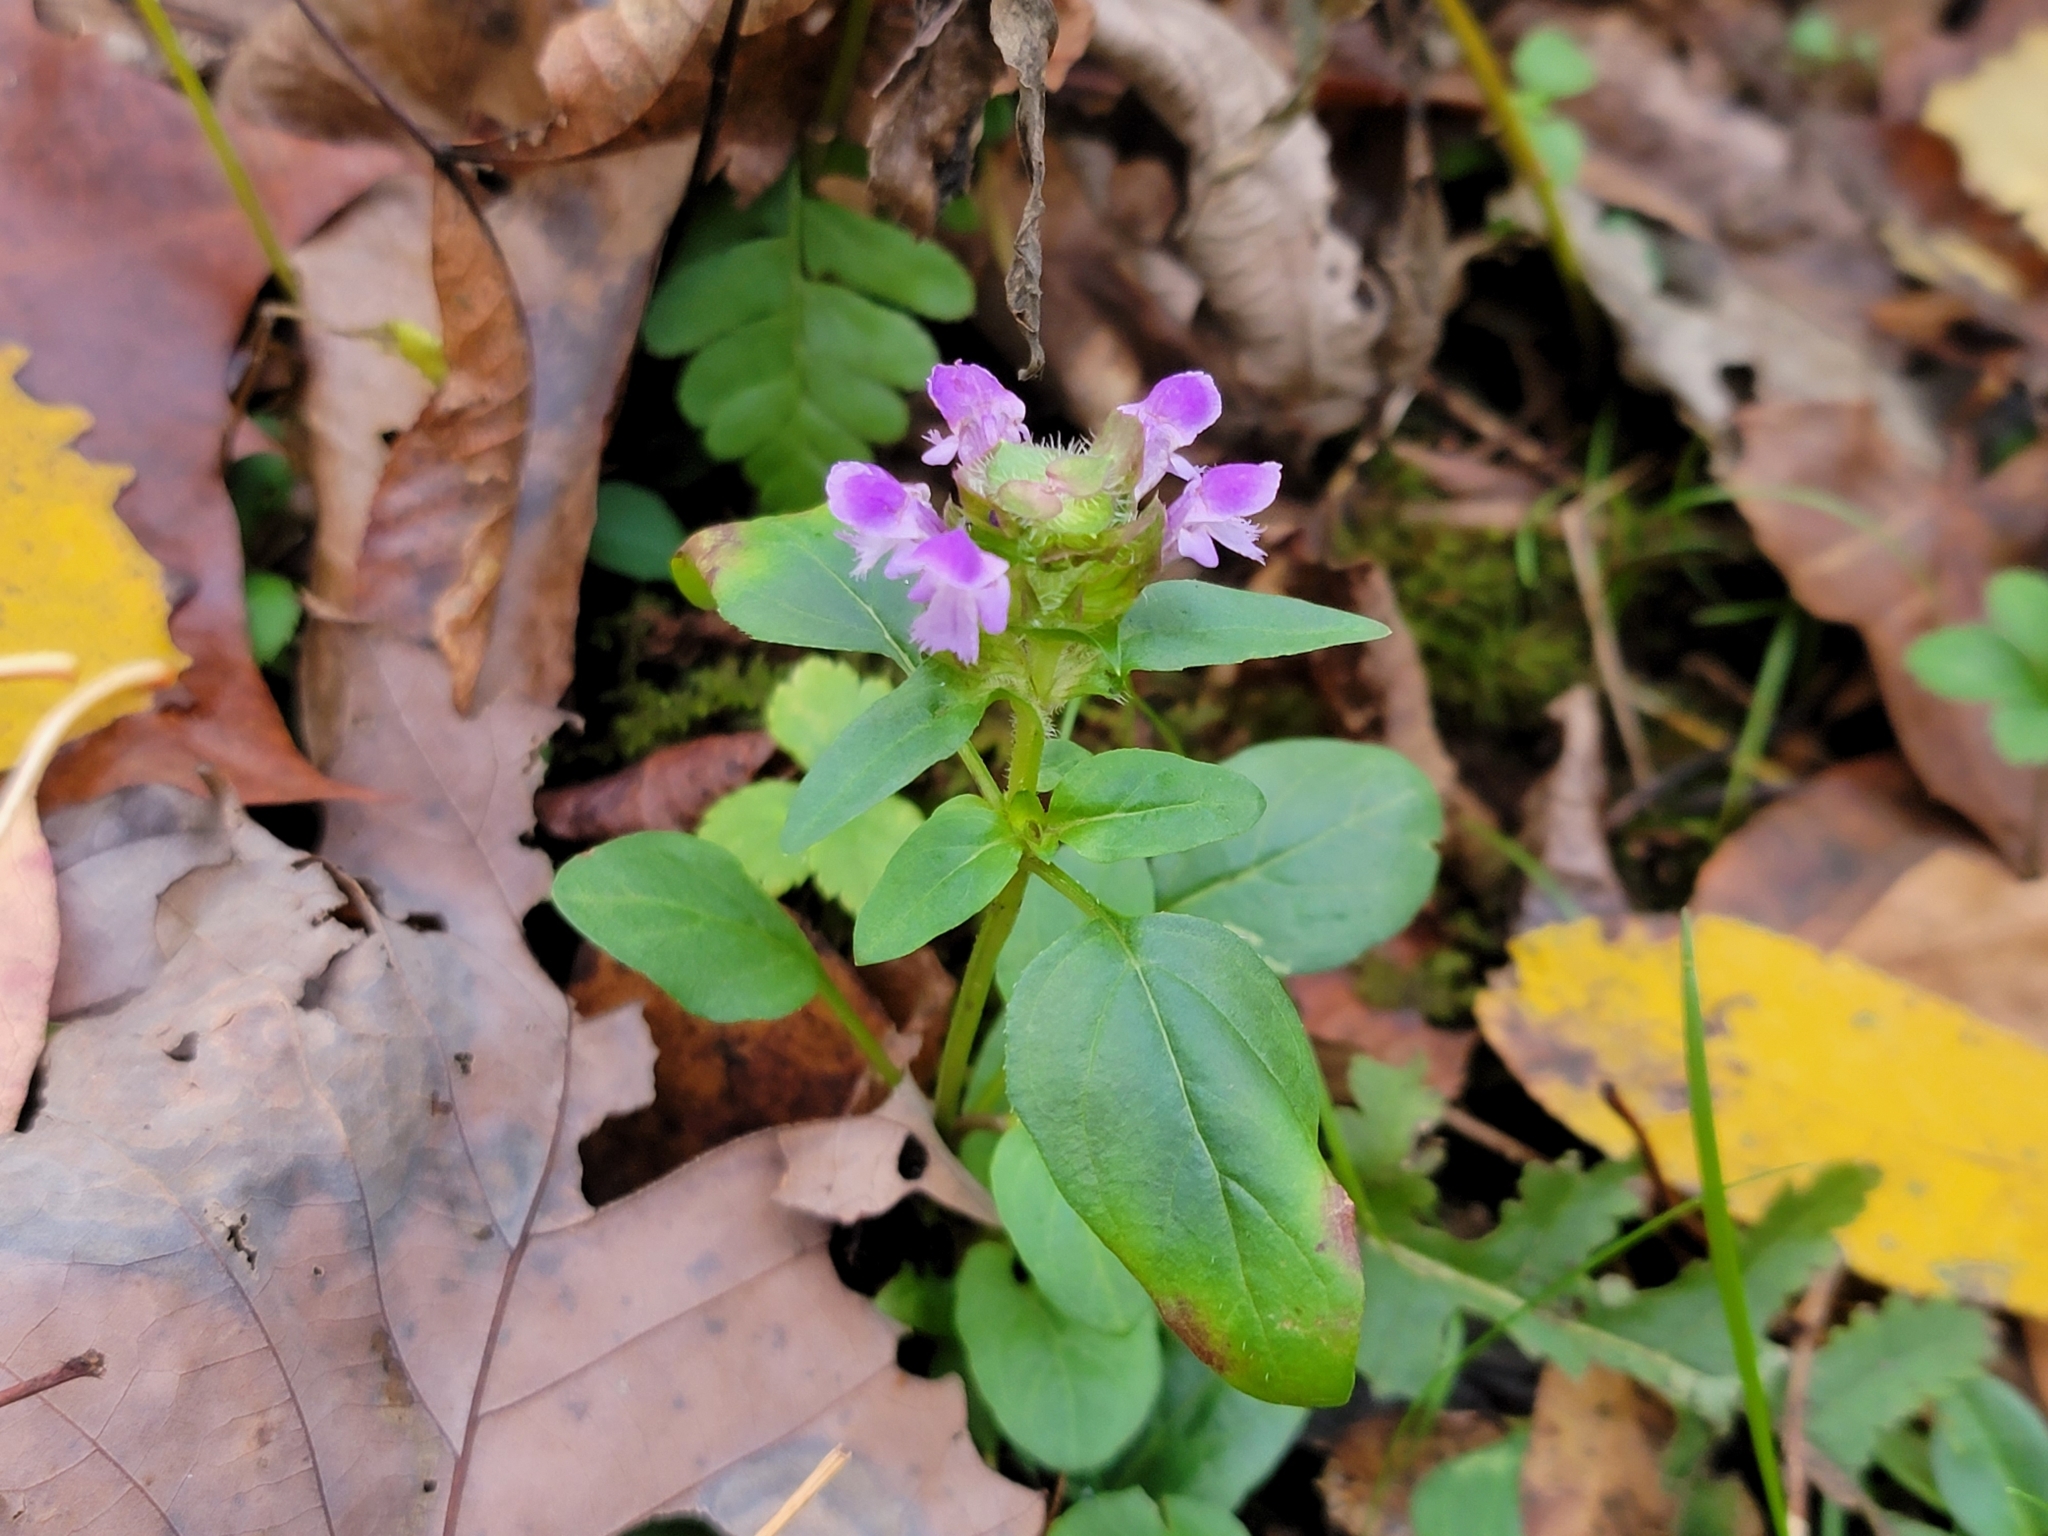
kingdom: Plantae
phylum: Tracheophyta
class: Magnoliopsida
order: Lamiales
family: Lamiaceae
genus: Prunella
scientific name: Prunella vulgaris
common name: Heal-all
